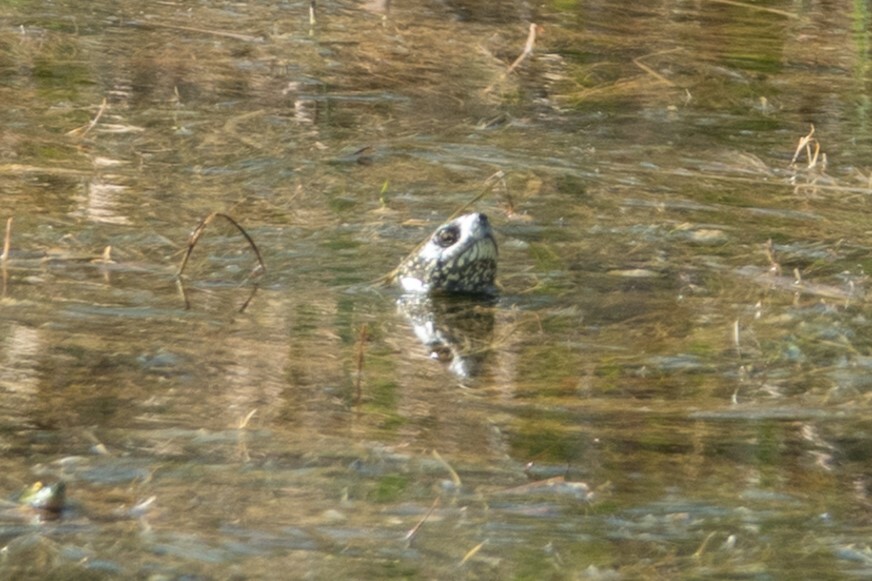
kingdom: Animalia
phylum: Chordata
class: Testudines
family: Emydidae
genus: Emys
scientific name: Emys orbicularis
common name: European pond turtle
